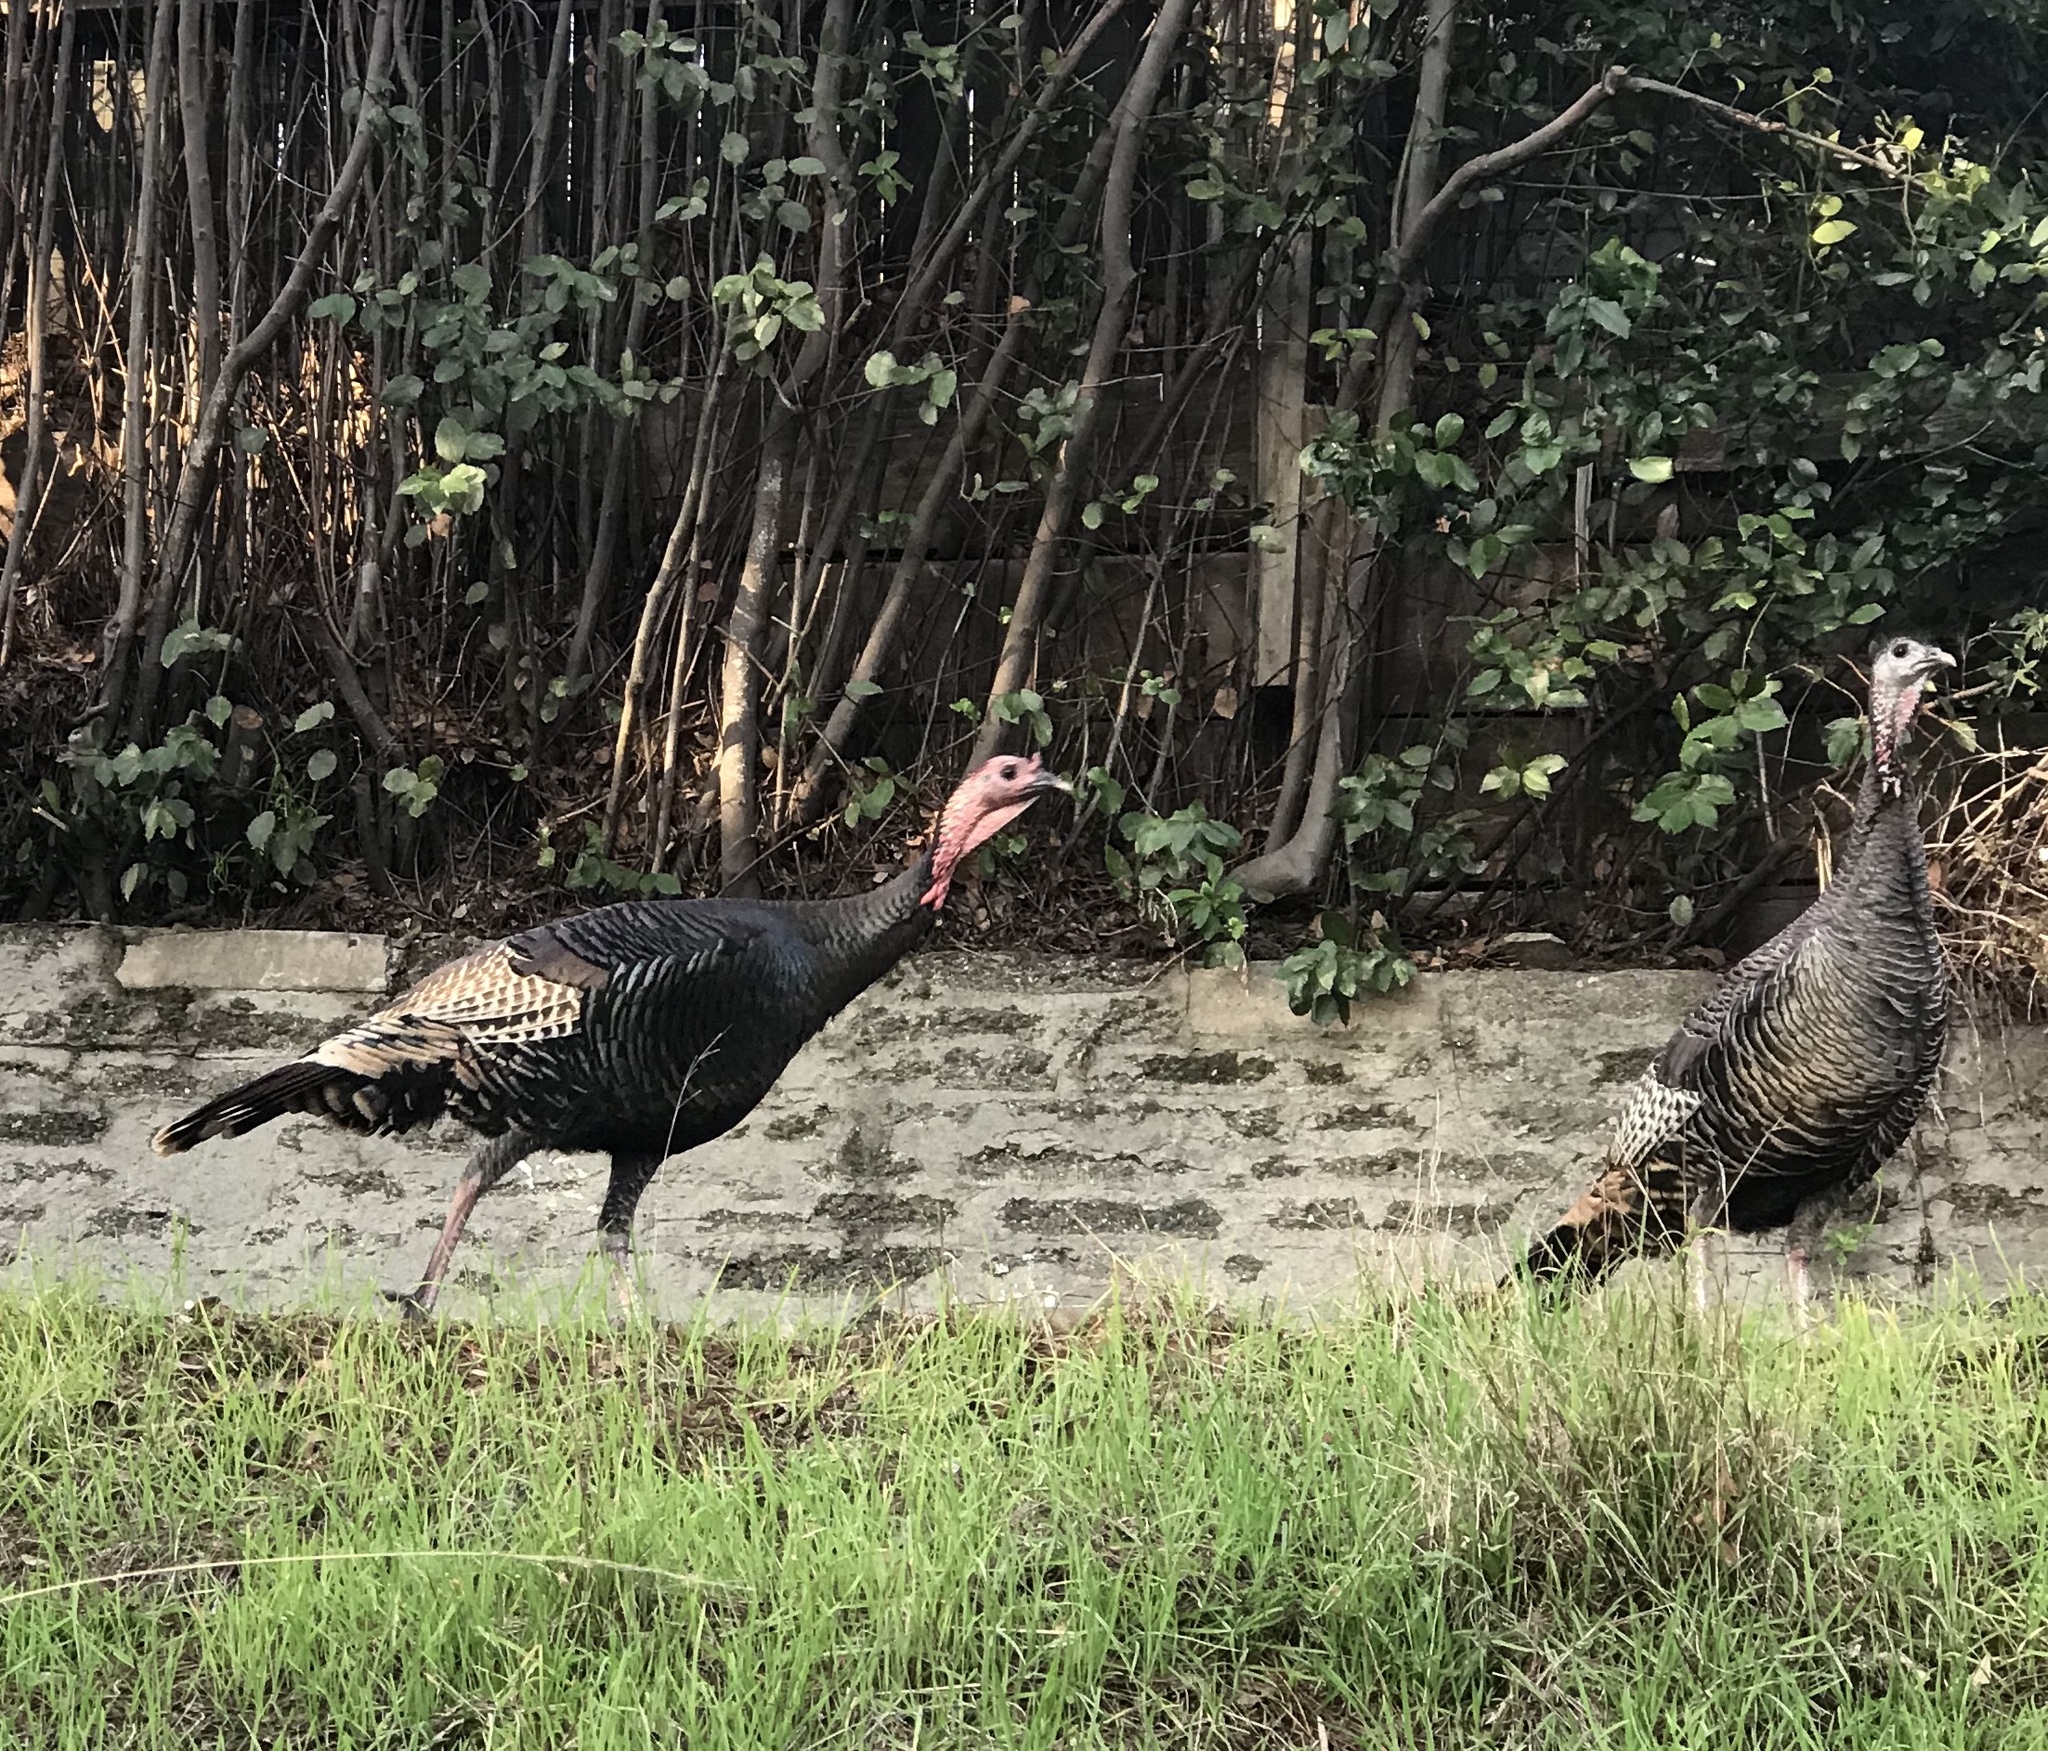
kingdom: Animalia
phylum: Chordata
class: Aves
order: Galliformes
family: Phasianidae
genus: Meleagris
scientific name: Meleagris gallopavo
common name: Wild turkey
